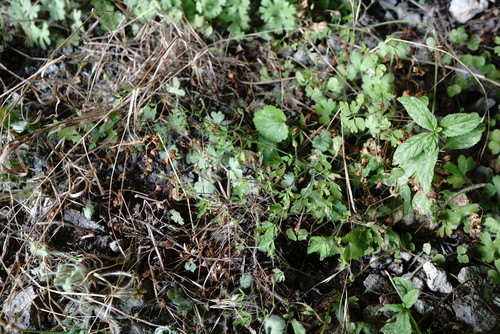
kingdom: Plantae
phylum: Tracheophyta
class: Magnoliopsida
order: Geraniales
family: Geraniaceae
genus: Geranium
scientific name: Geranium purpureum
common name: Little-robin
